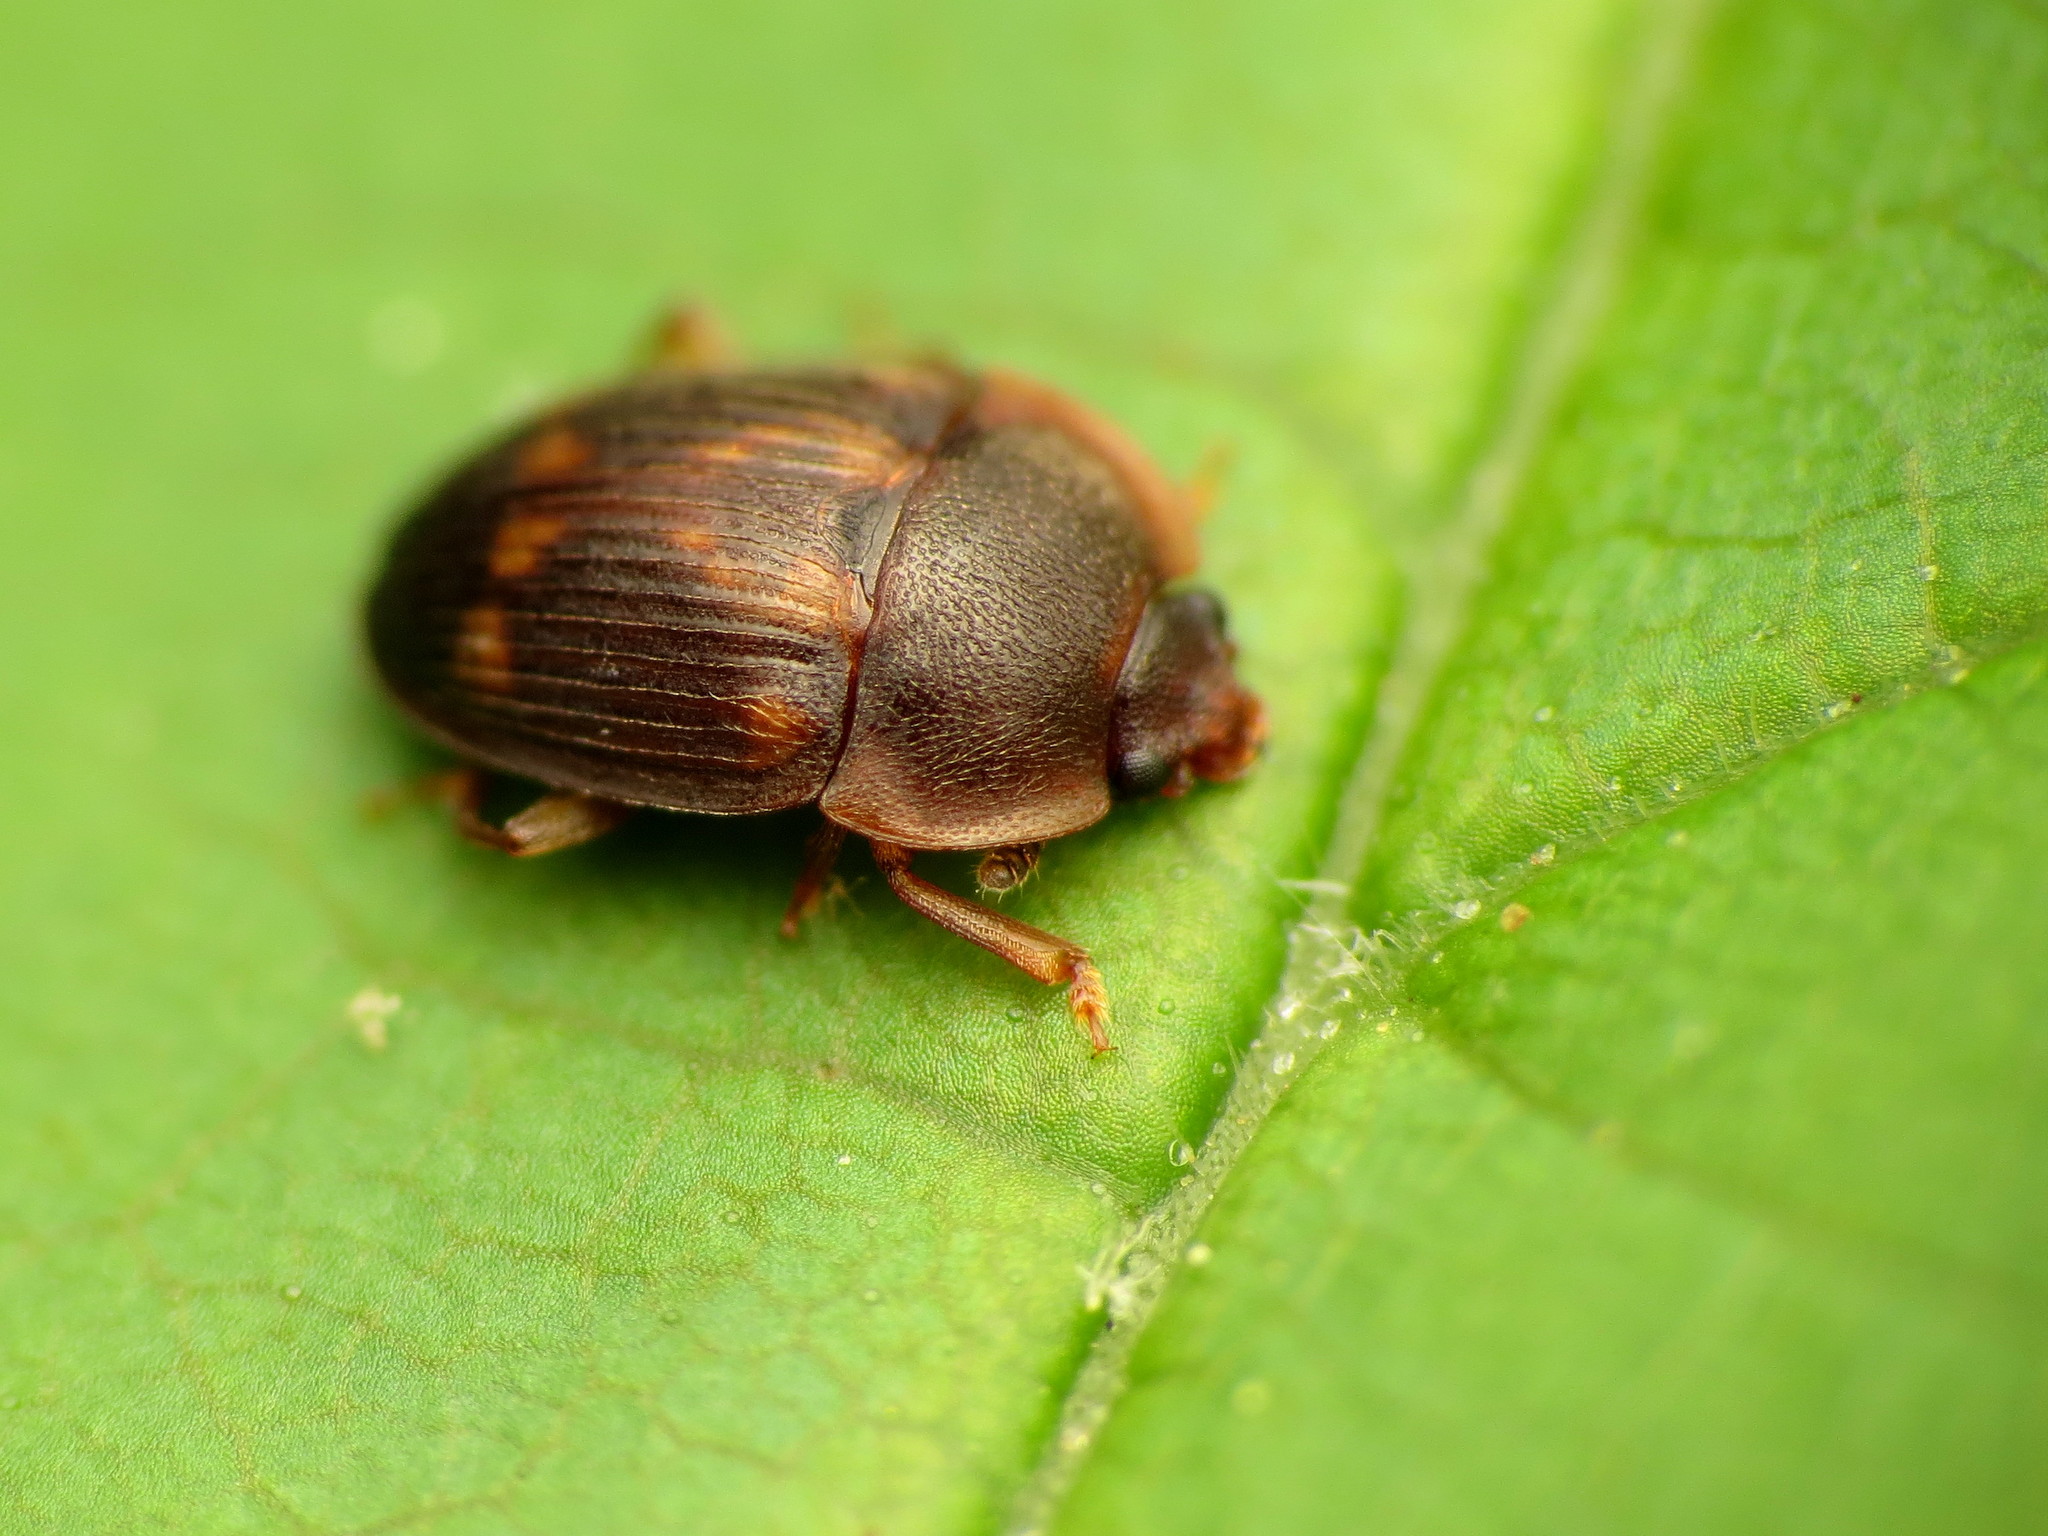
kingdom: Animalia
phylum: Arthropoda
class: Insecta
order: Coleoptera
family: Nitidulidae
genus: Stelidota
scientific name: Stelidota geminata
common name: Strawberry sap beetle
